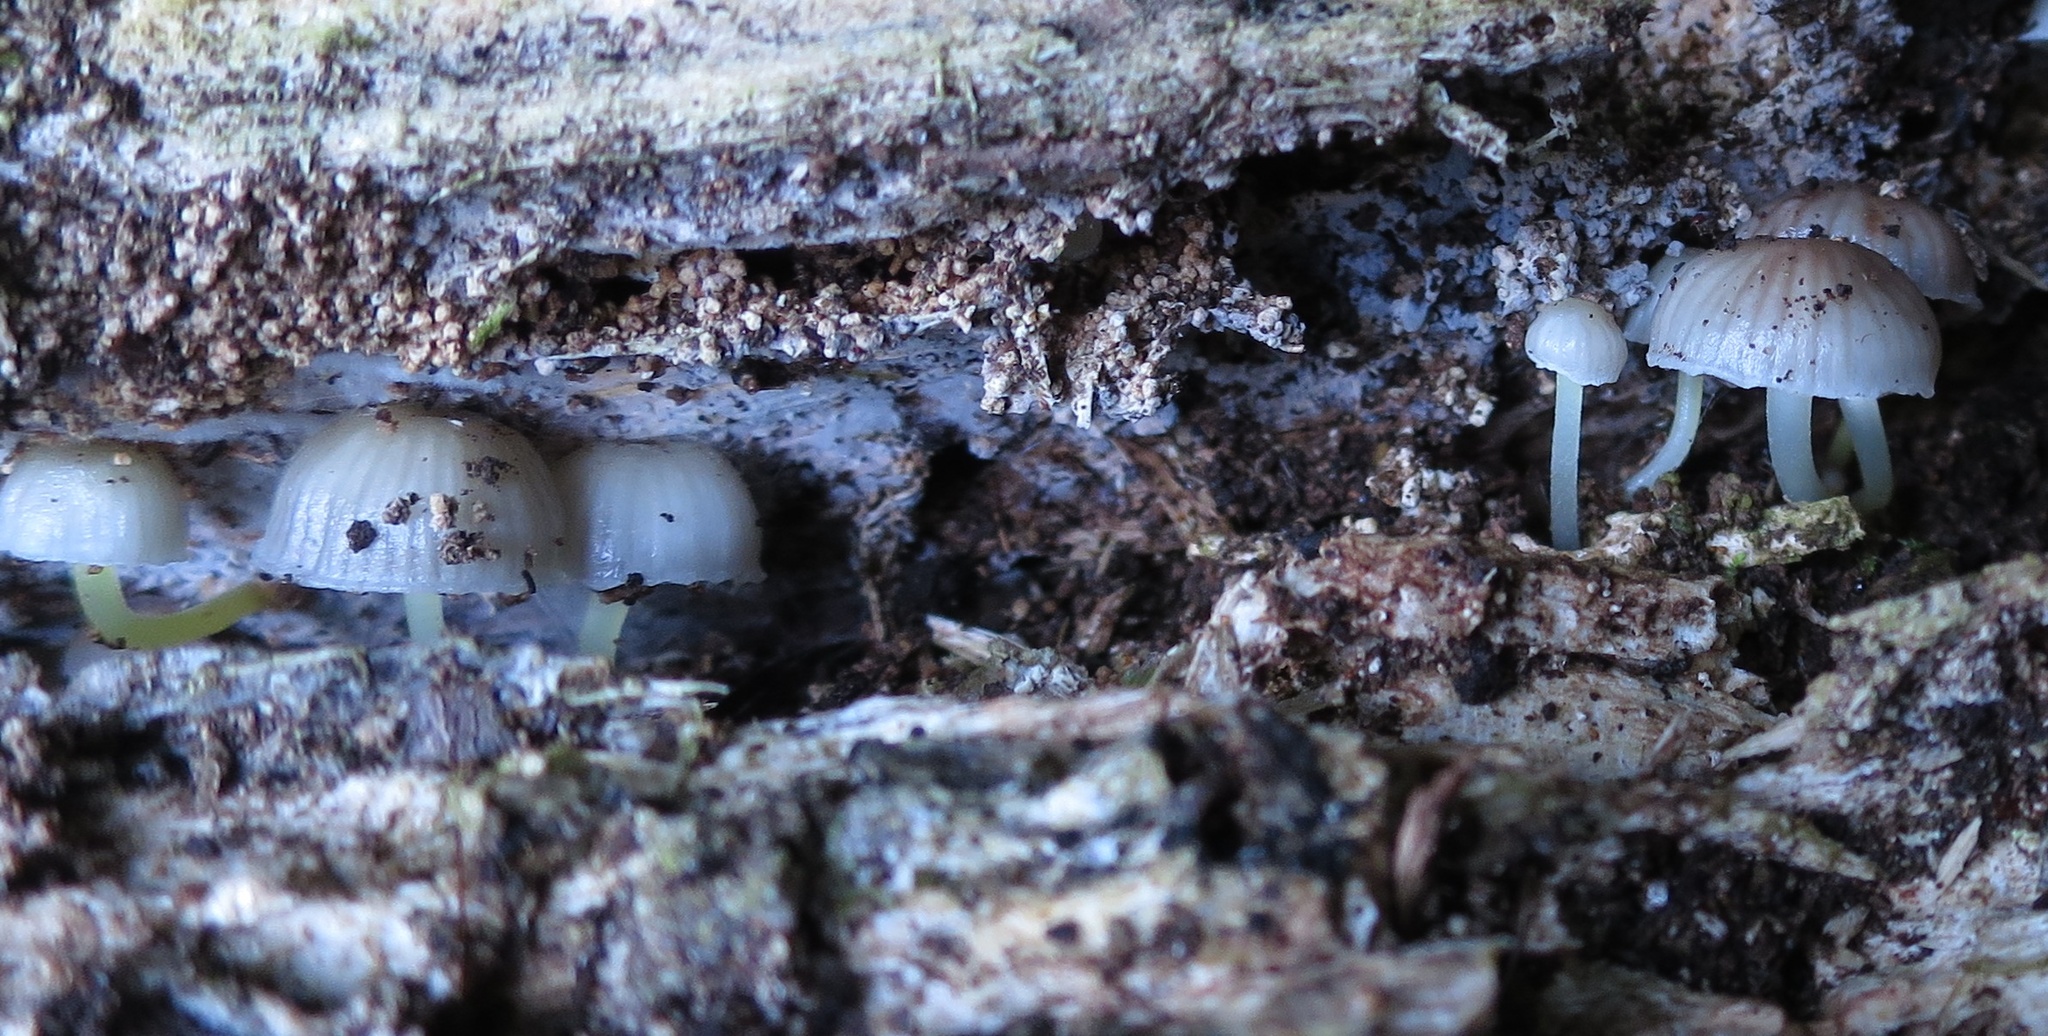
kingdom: Fungi
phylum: Basidiomycota
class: Agaricomycetes
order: Agaricales
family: Mycenaceae
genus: Mycena
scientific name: Mycena subviscosa
